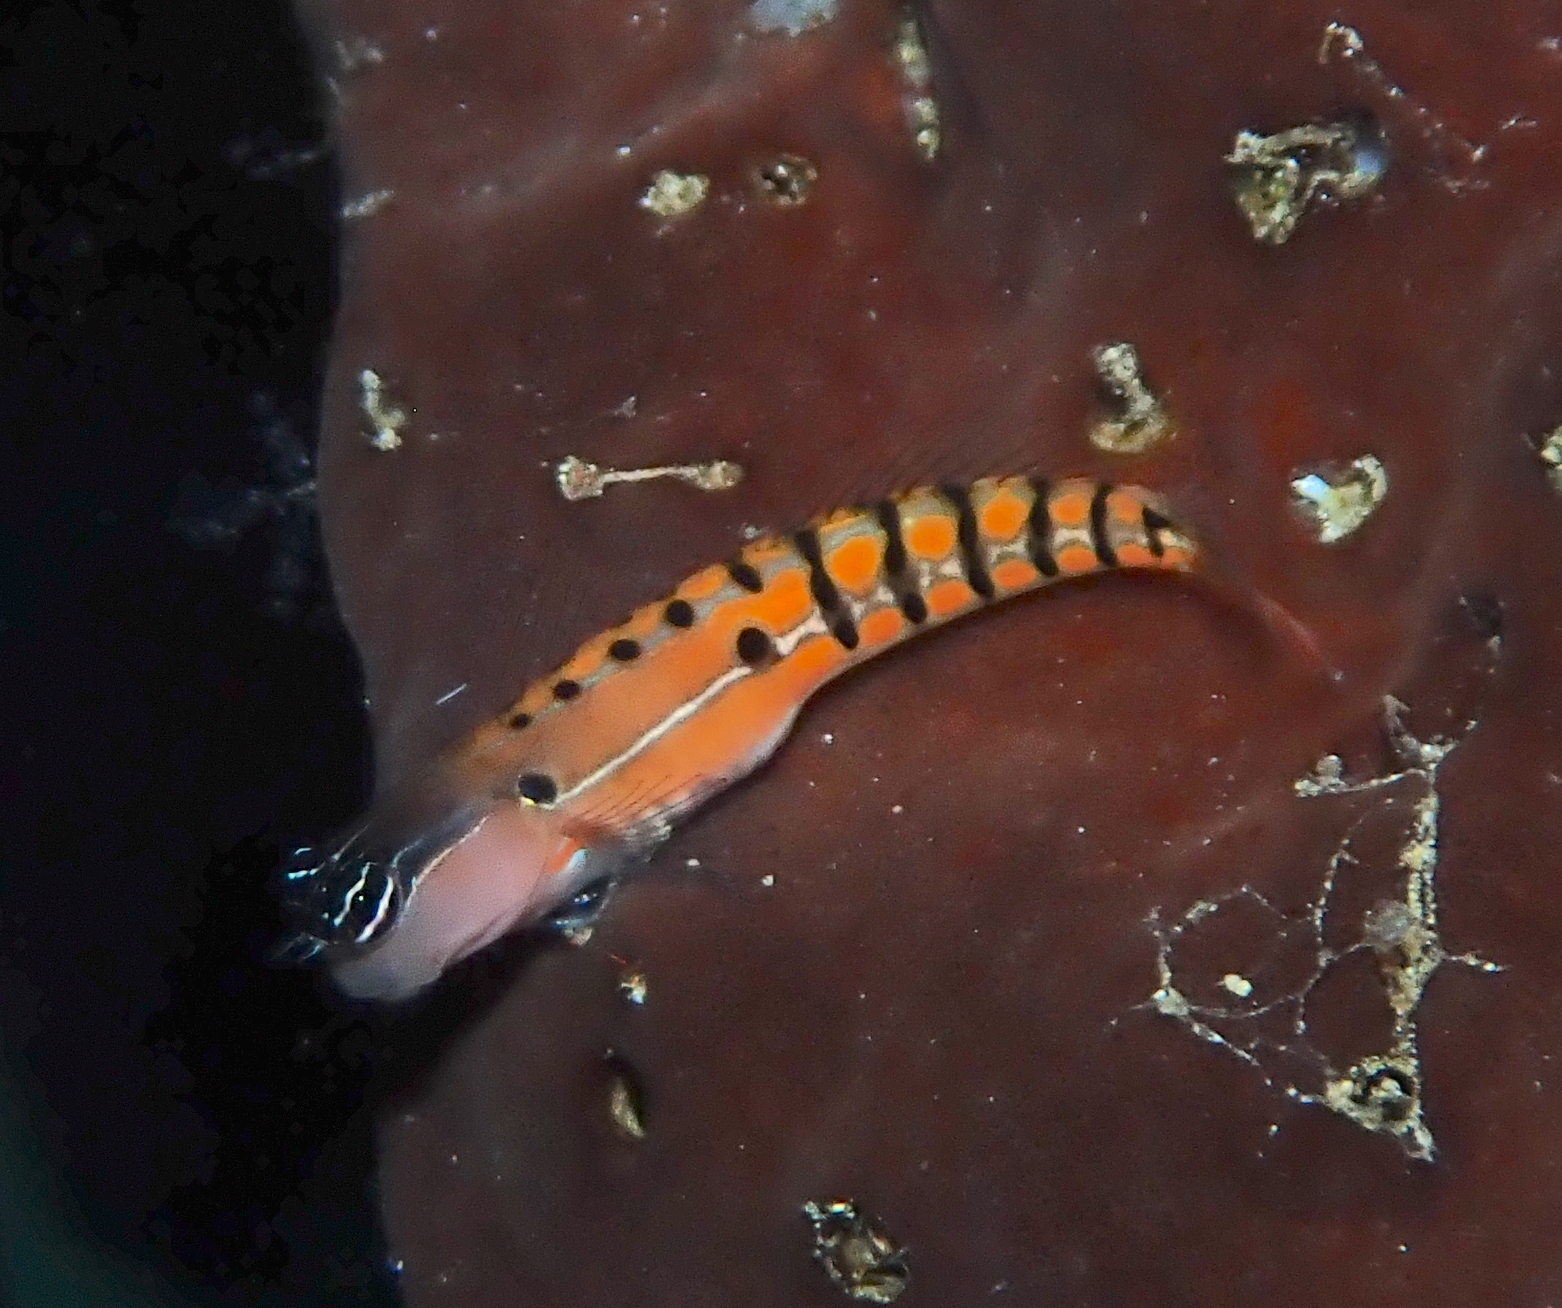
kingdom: Animalia
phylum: Chordata
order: Perciformes
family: Blenniidae
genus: Ecsenius
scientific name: Ecsenius axelrodi
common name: Axelrod's clown blenny
